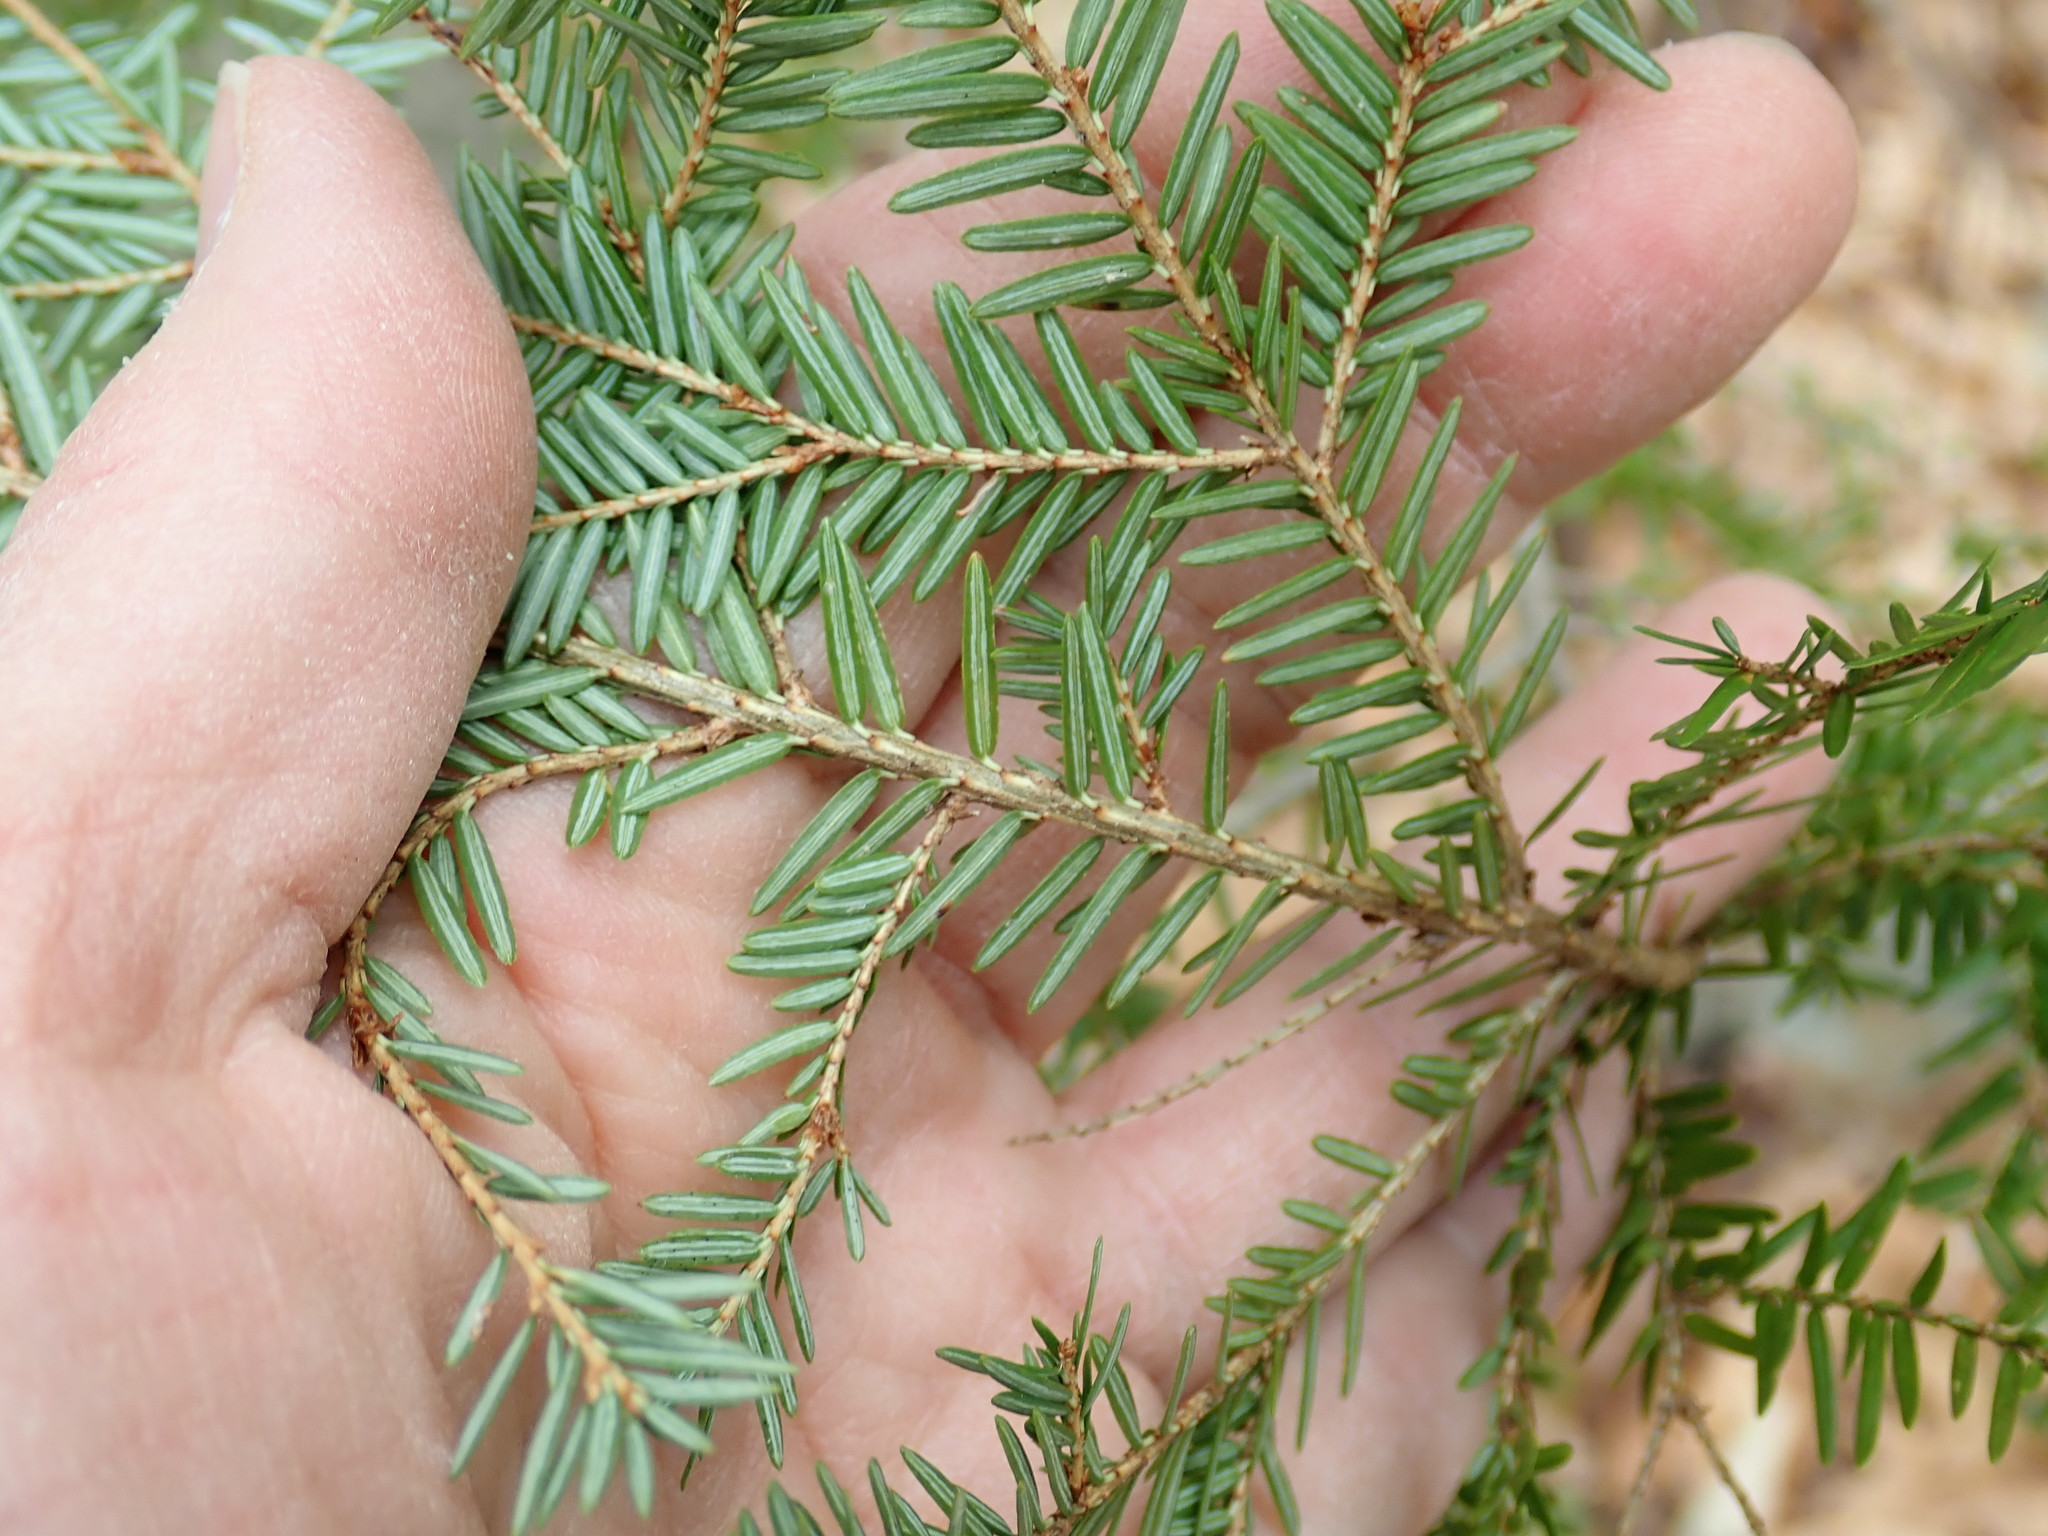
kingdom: Plantae
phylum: Tracheophyta
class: Pinopsida
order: Pinales
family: Pinaceae
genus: Tsuga
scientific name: Tsuga canadensis
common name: Eastern hemlock
